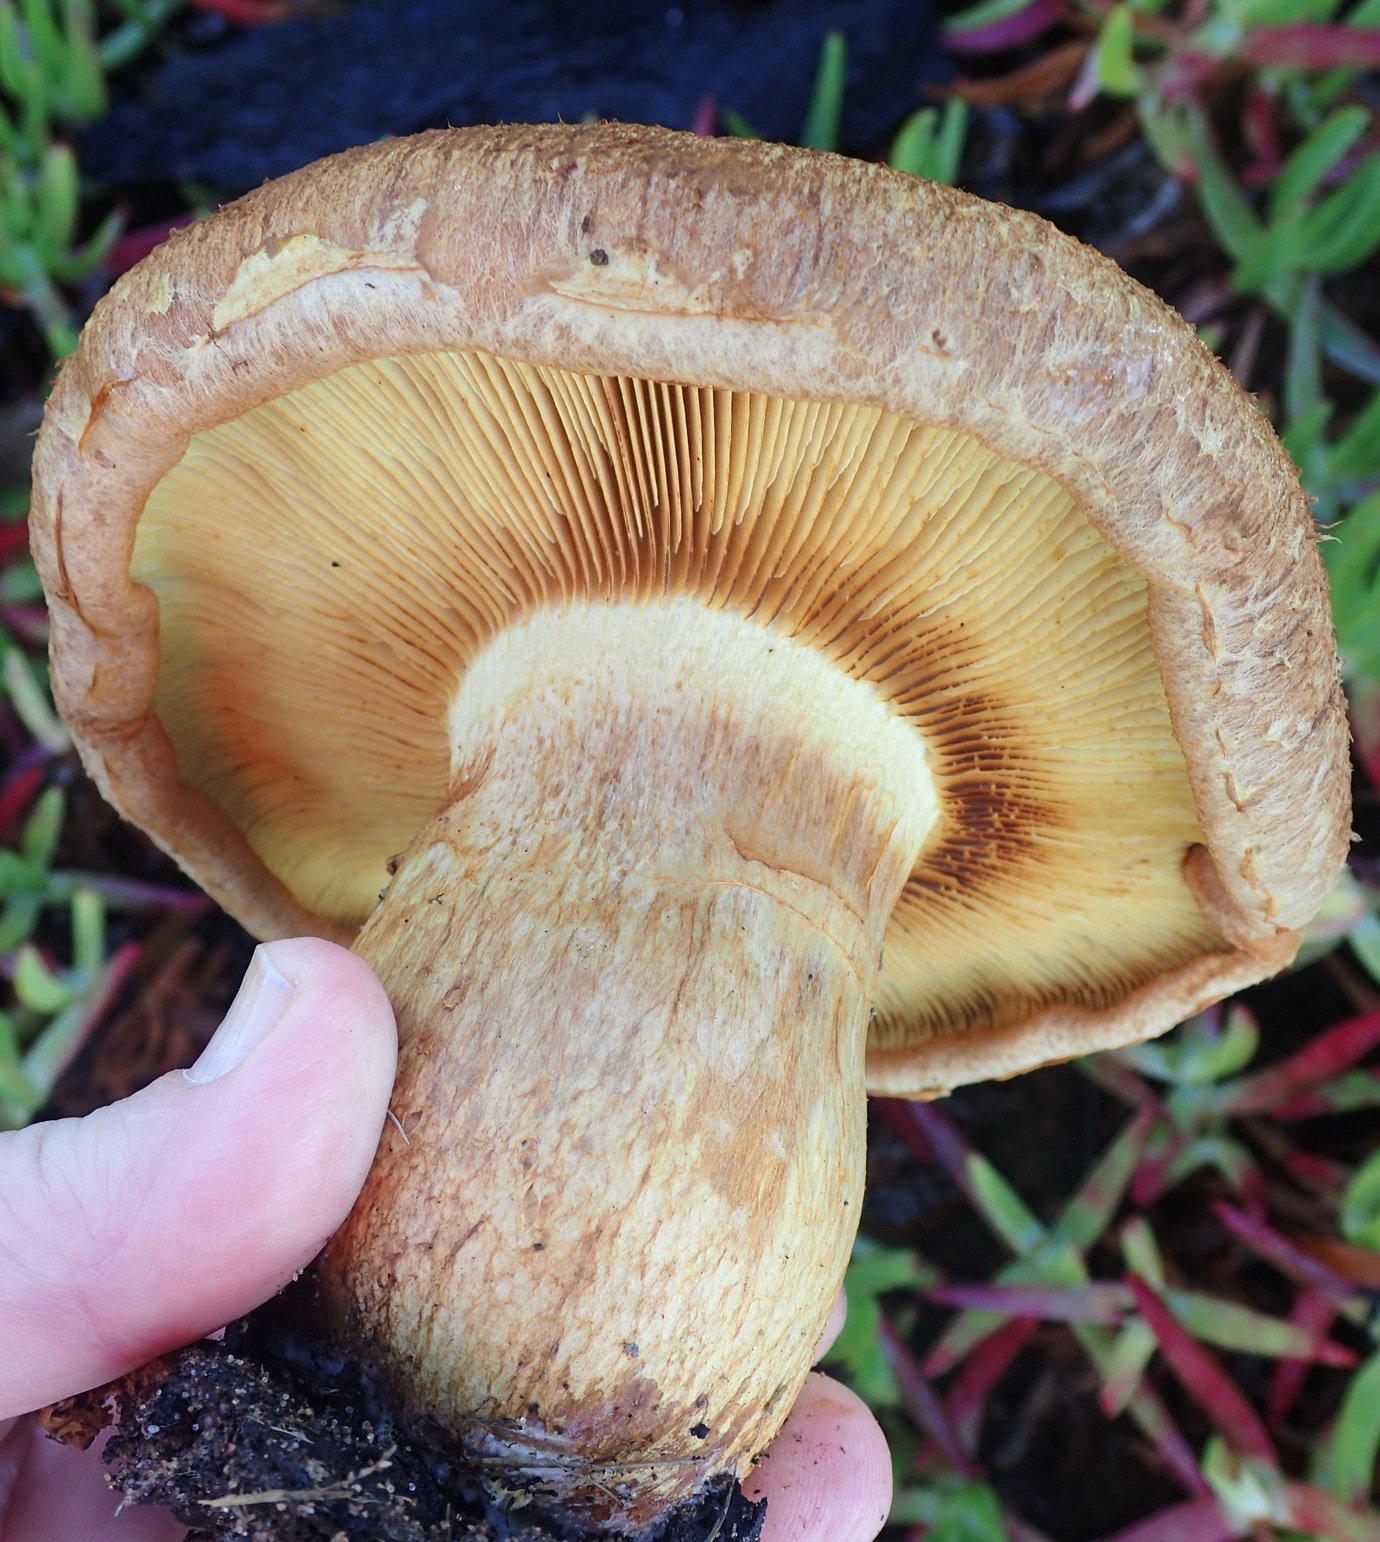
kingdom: Fungi
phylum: Basidiomycota
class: Agaricomycetes
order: Agaricales
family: Hymenogastraceae
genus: Gymnopilus
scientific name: Gymnopilus junonius
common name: Spectacular rustgill
